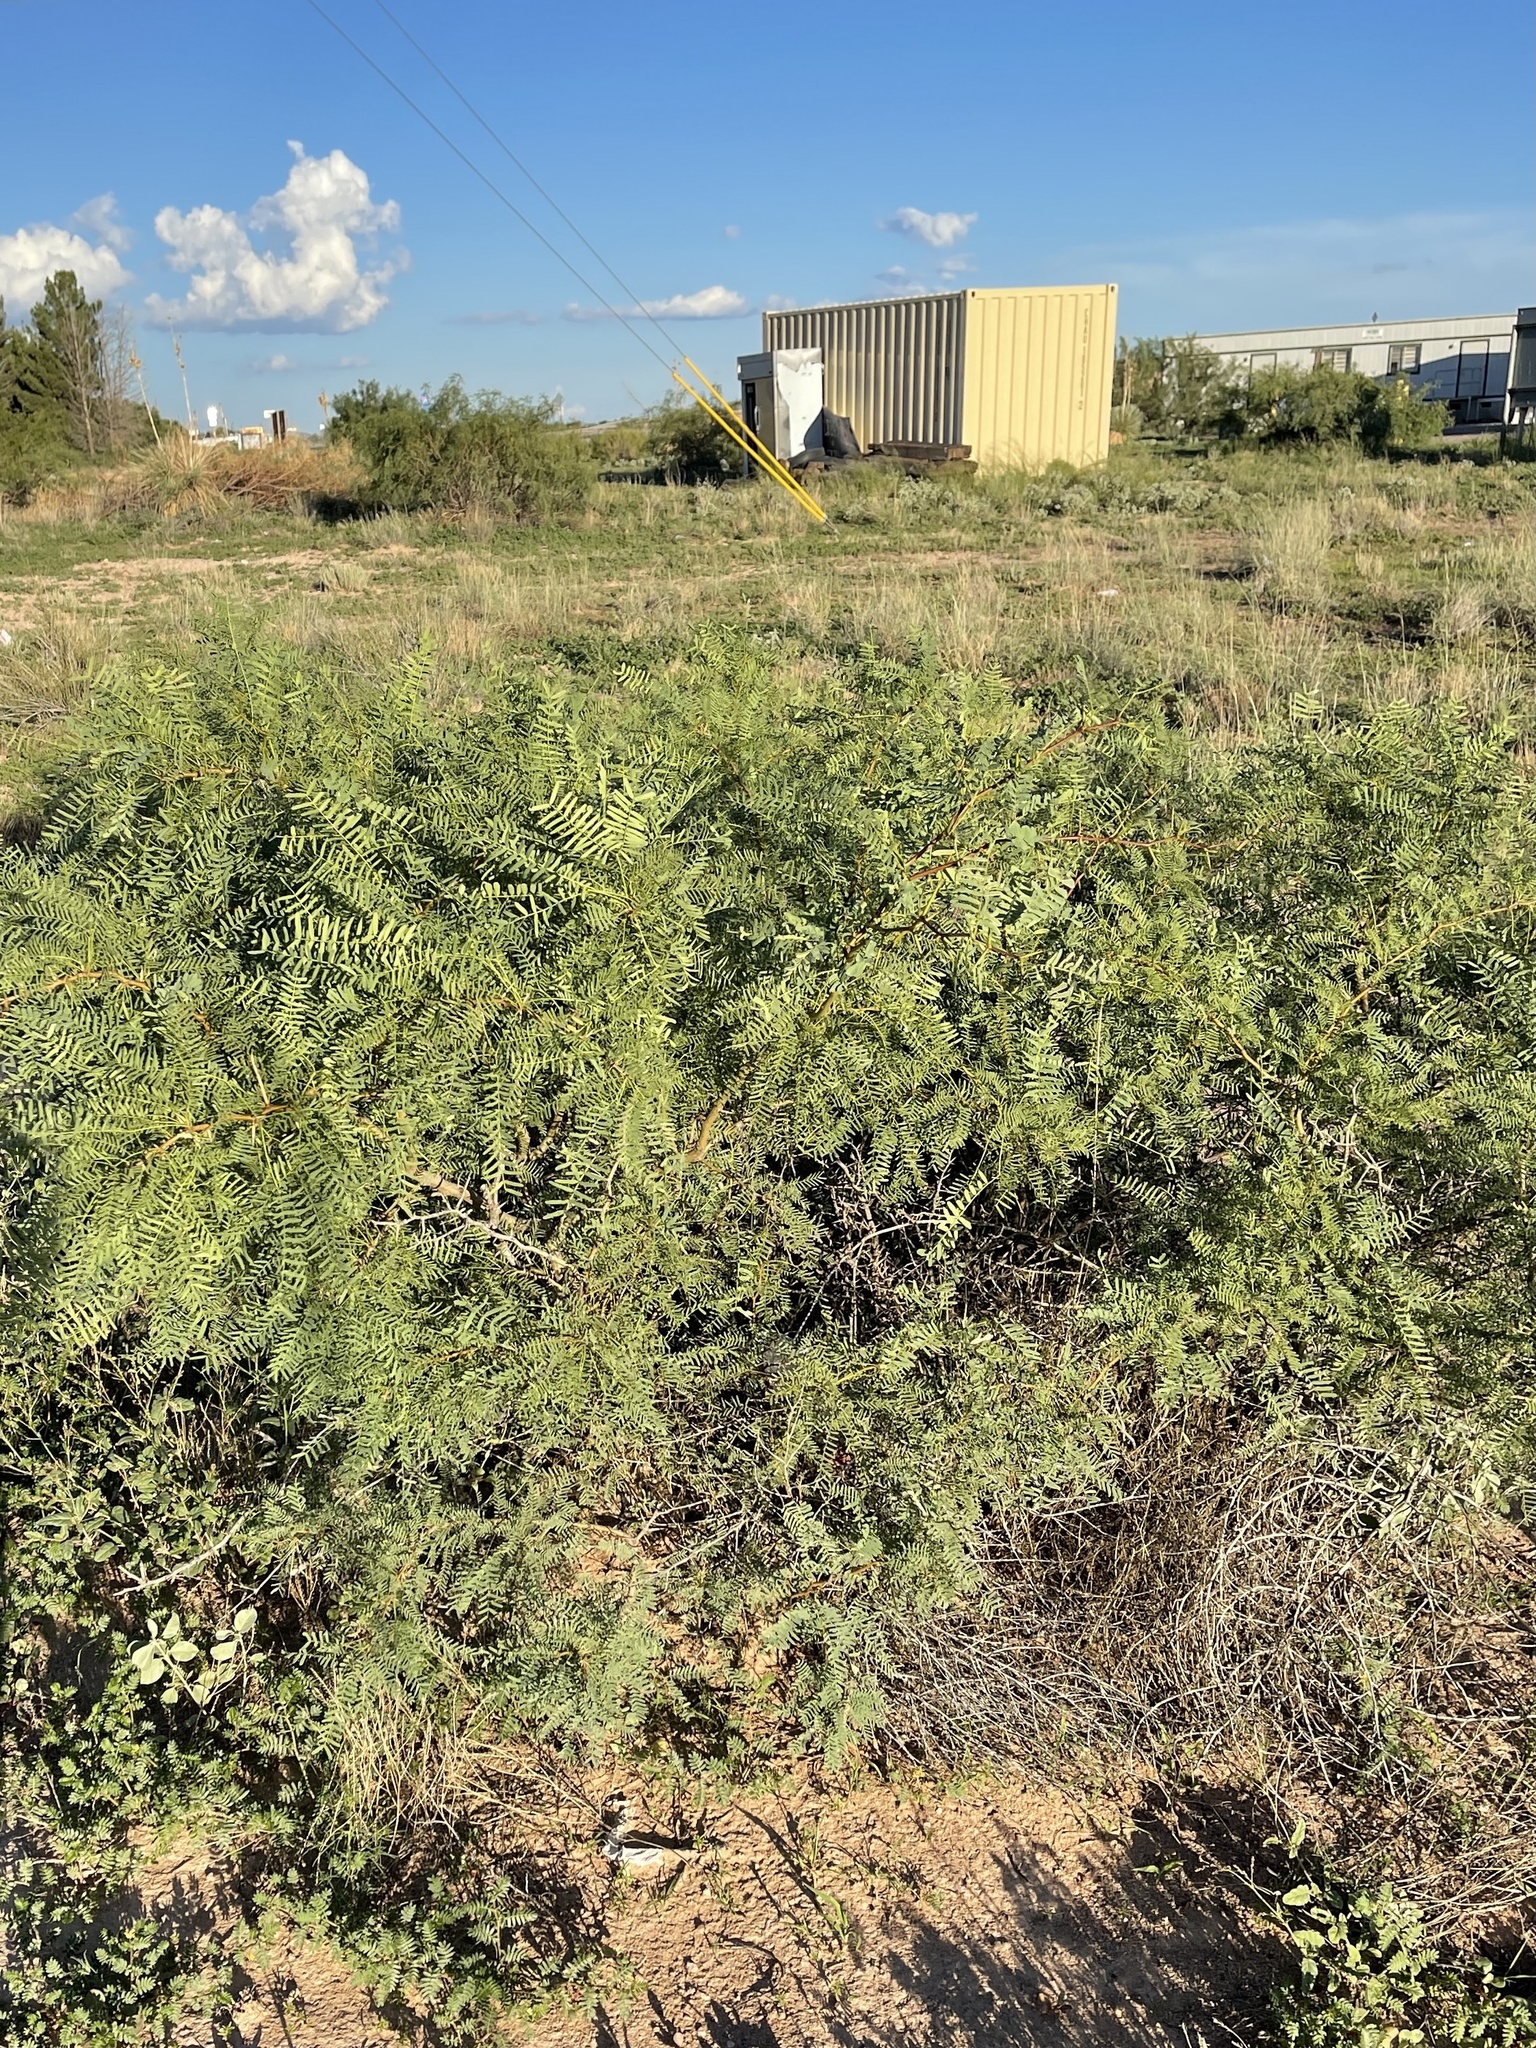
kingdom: Plantae
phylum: Tracheophyta
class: Magnoliopsida
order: Fabales
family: Fabaceae
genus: Prosopis
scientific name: Prosopis glandulosa
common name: Honey mesquite
